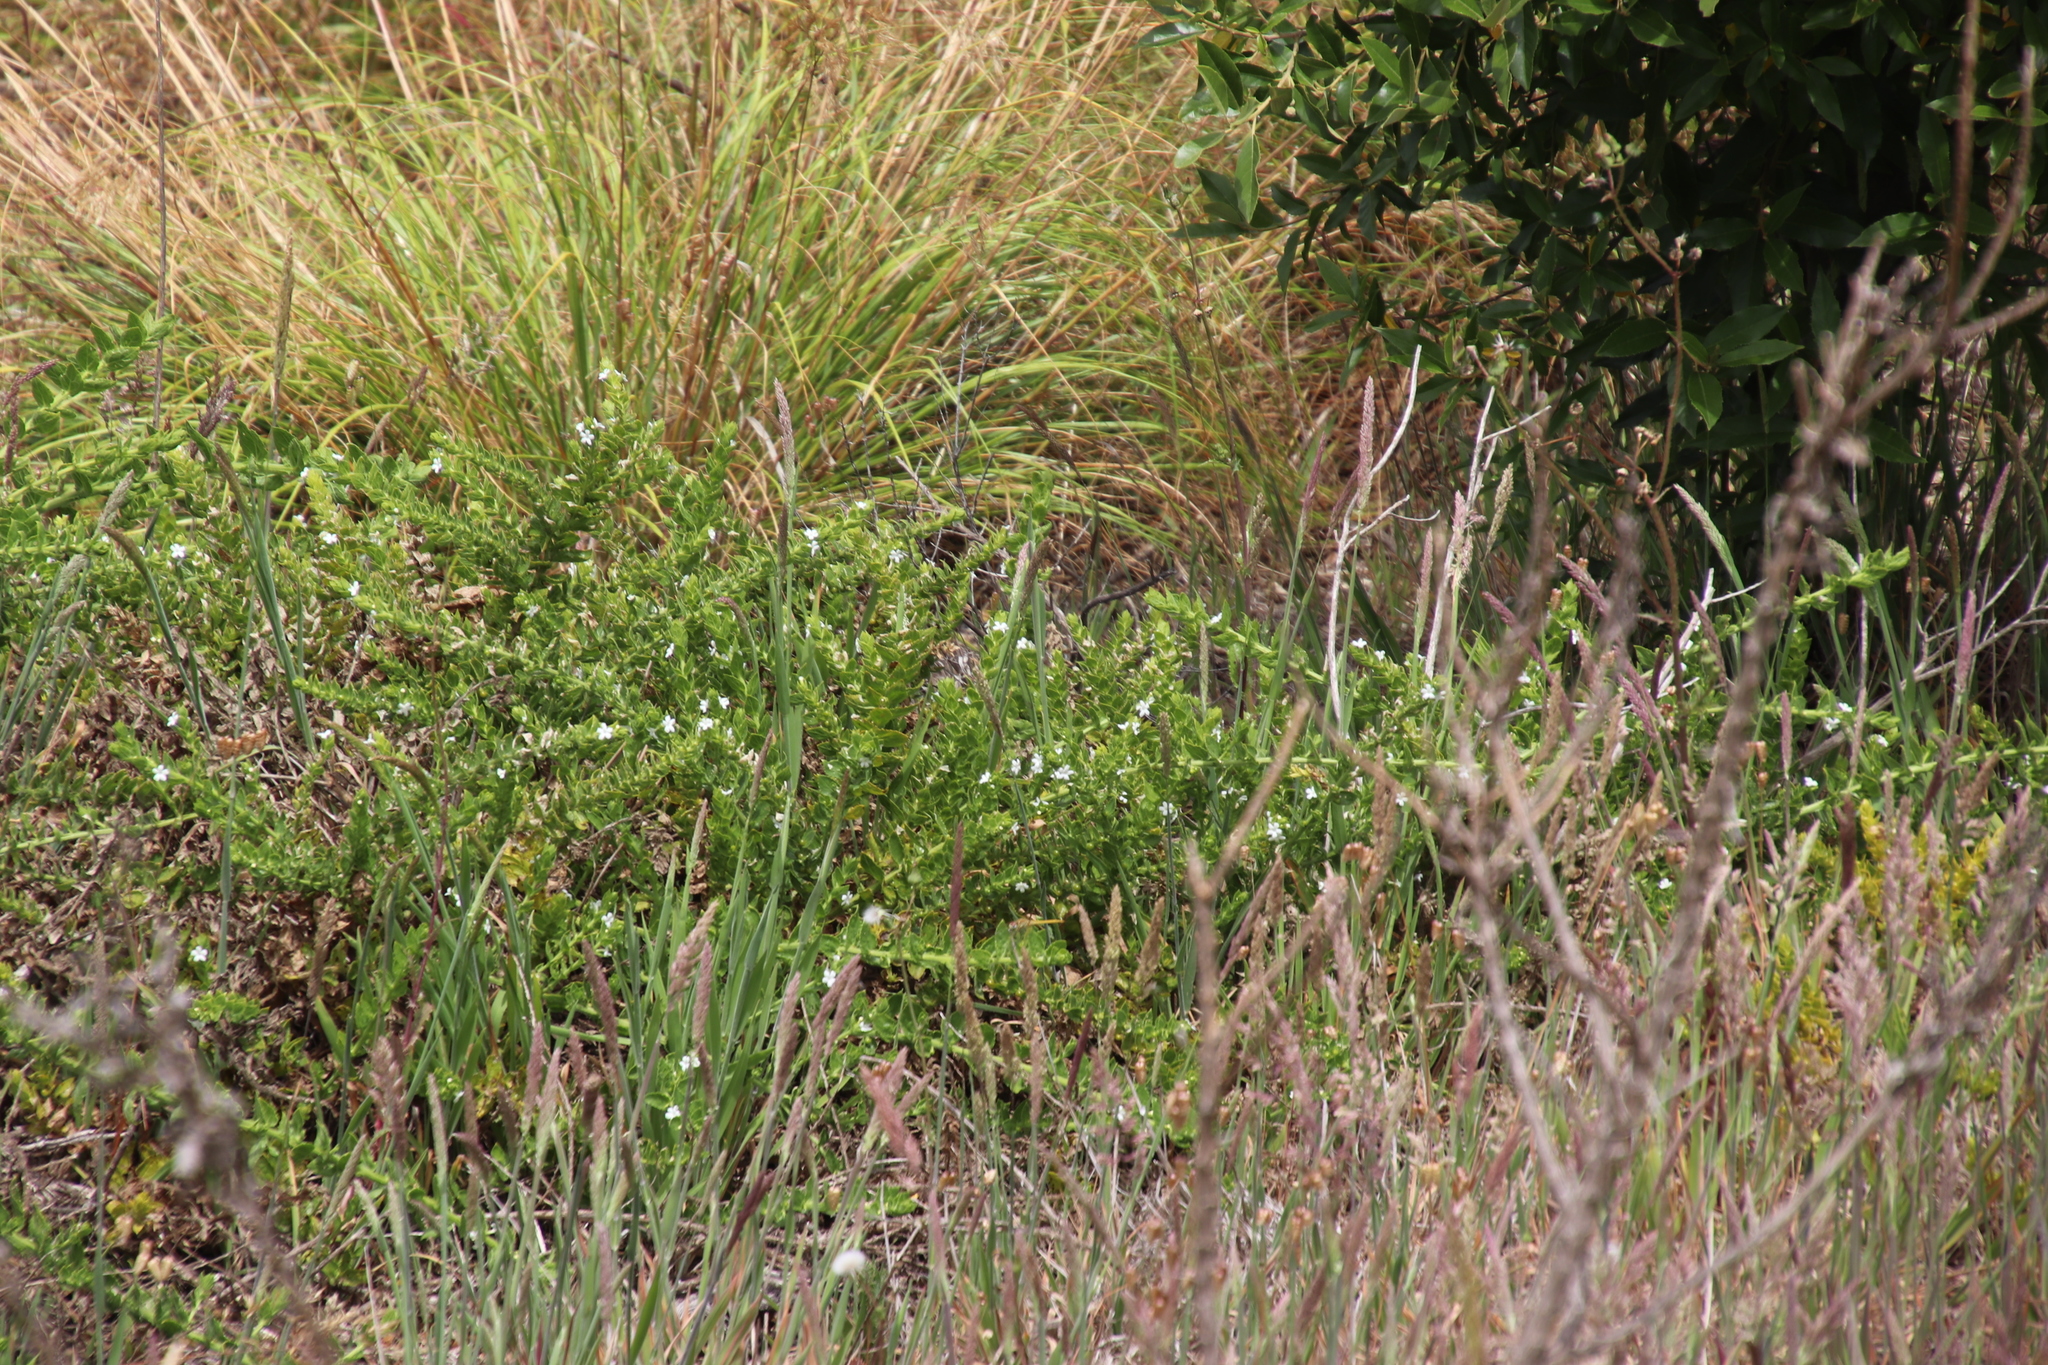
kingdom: Plantae
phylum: Tracheophyta
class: Magnoliopsida
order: Lamiales
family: Scrophulariaceae
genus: Oftia
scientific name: Oftia africana
